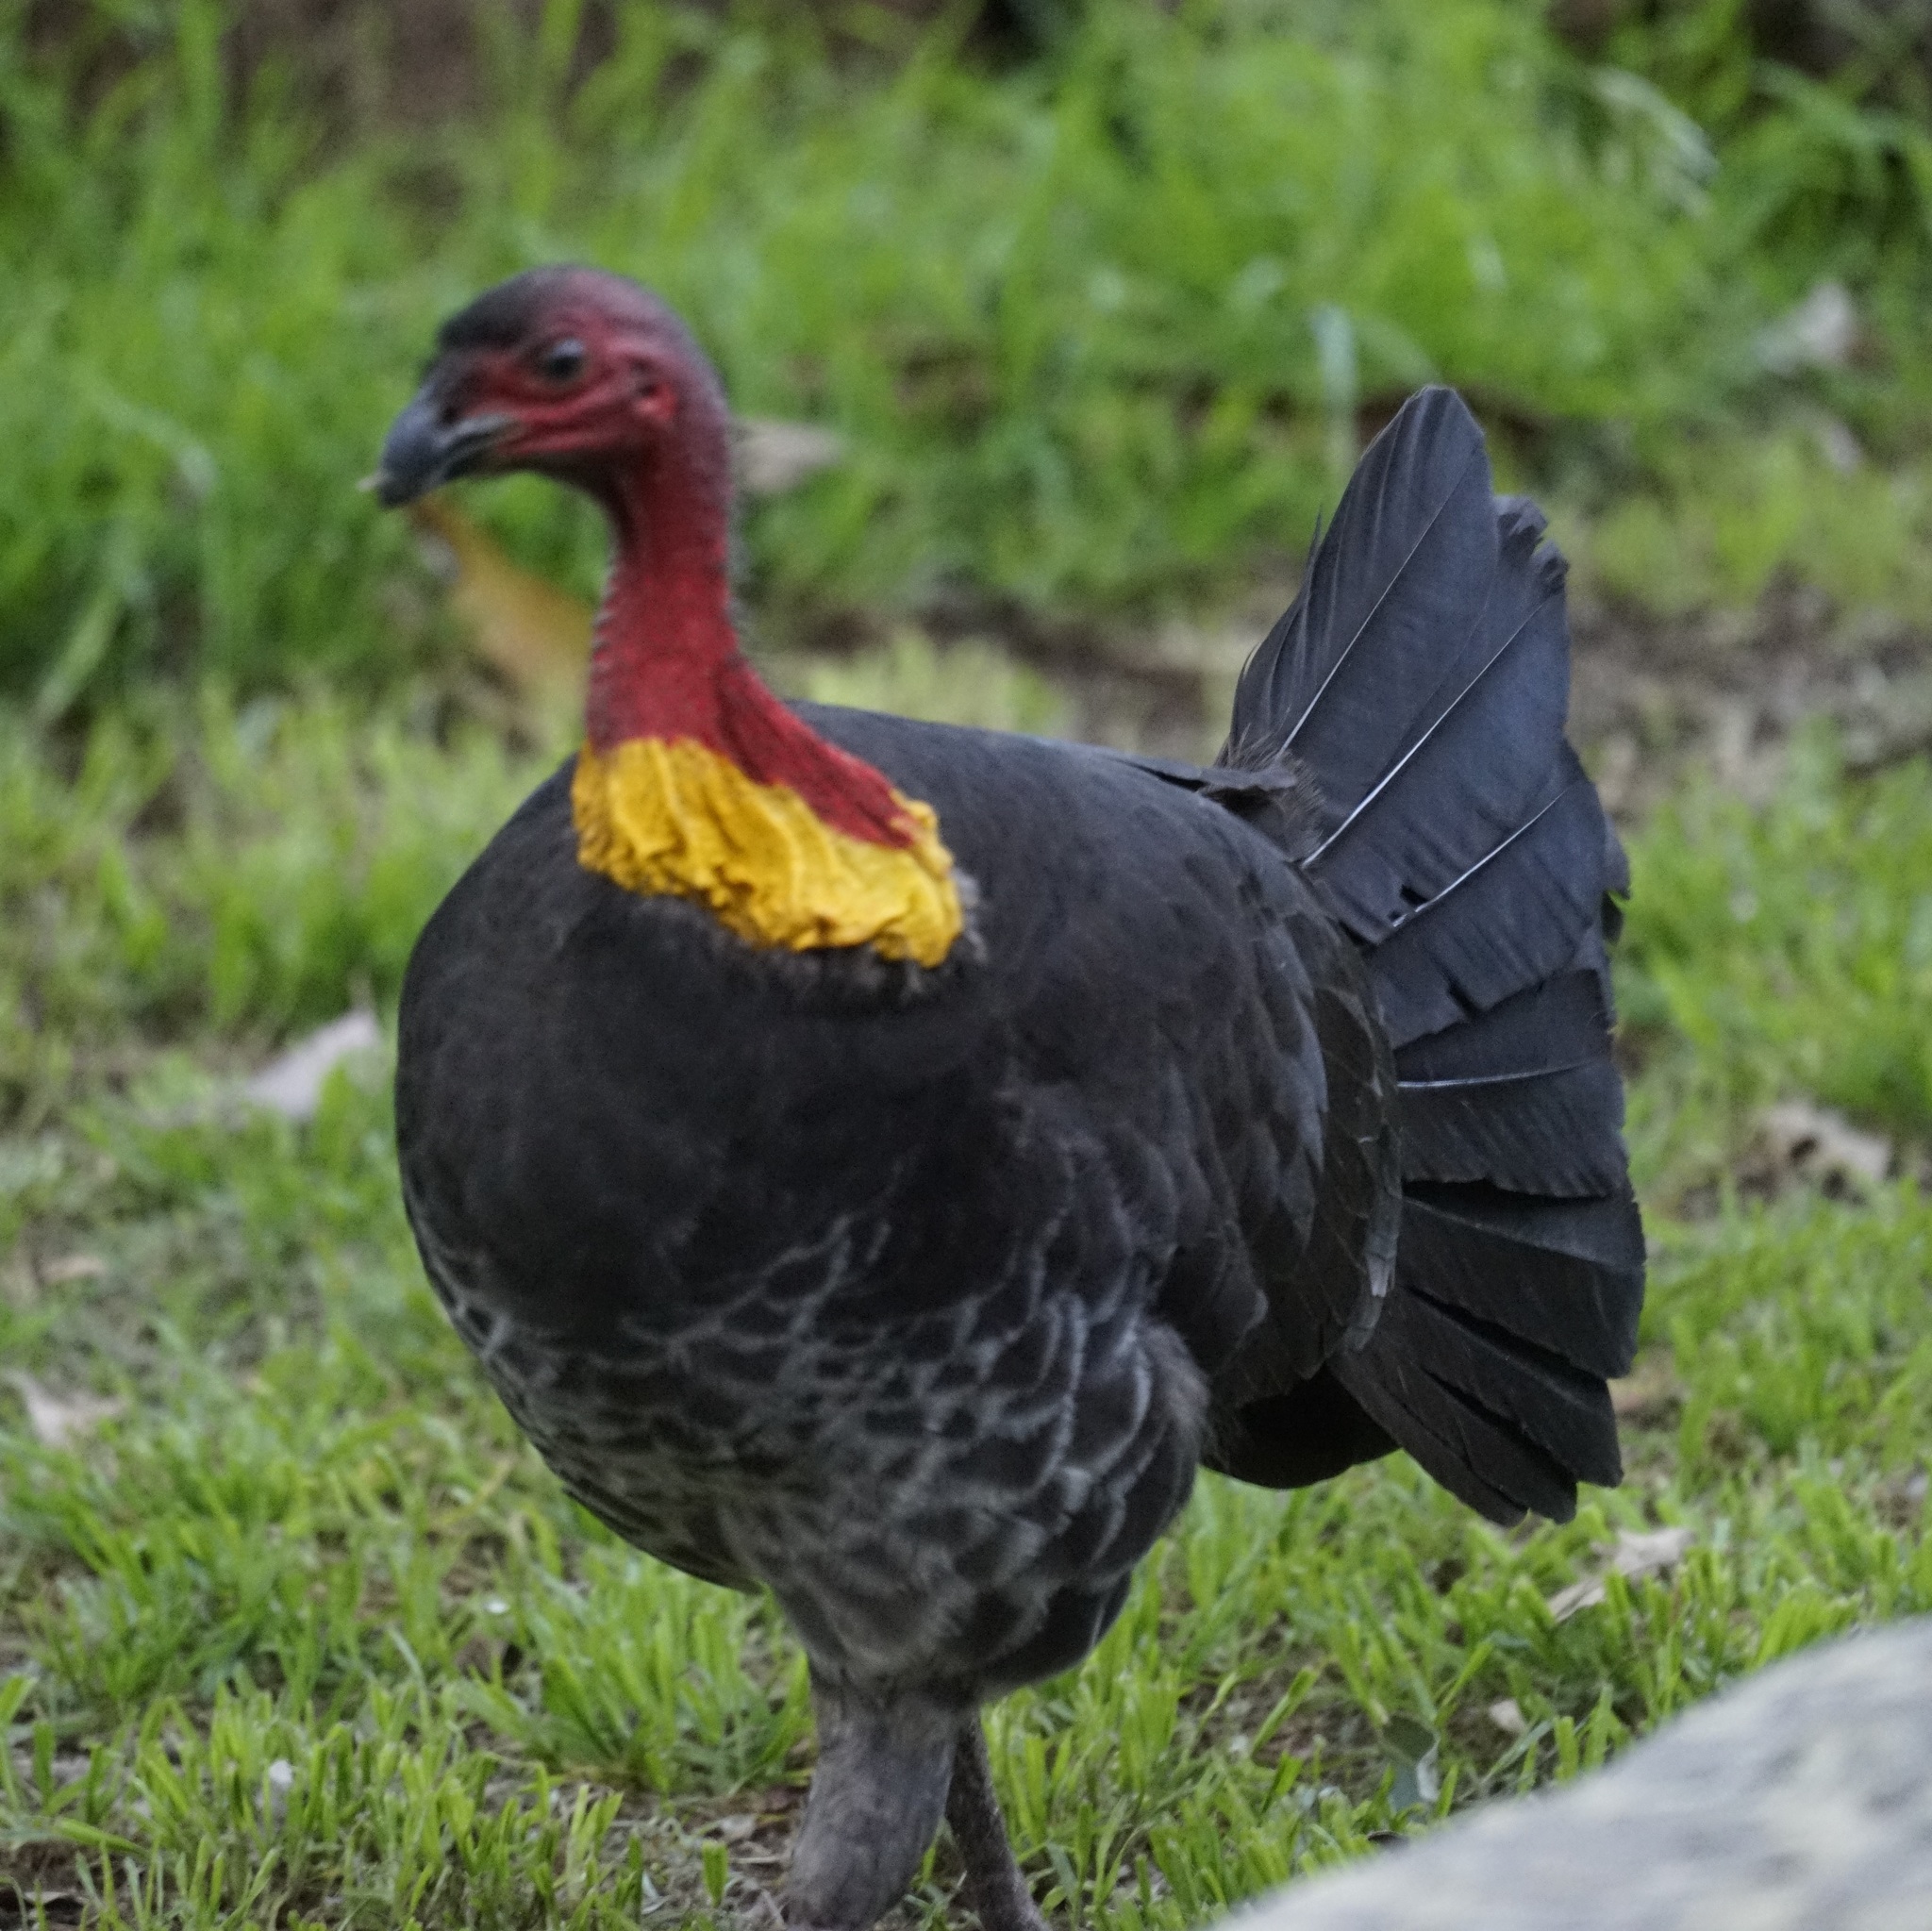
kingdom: Animalia
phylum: Chordata
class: Aves
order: Galliformes
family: Megapodiidae
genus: Alectura
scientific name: Alectura lathami
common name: Australian brushturkey
